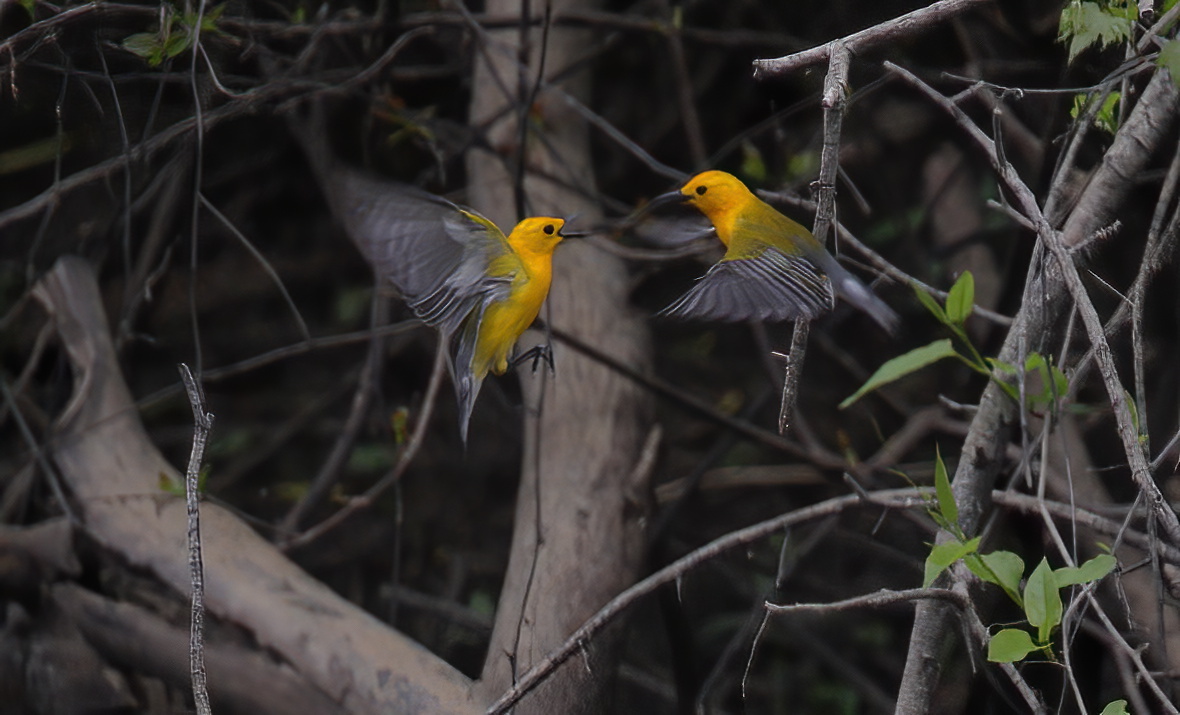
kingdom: Animalia
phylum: Chordata
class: Aves
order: Passeriformes
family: Parulidae
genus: Protonotaria
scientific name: Protonotaria citrea
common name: Prothonotary warbler
